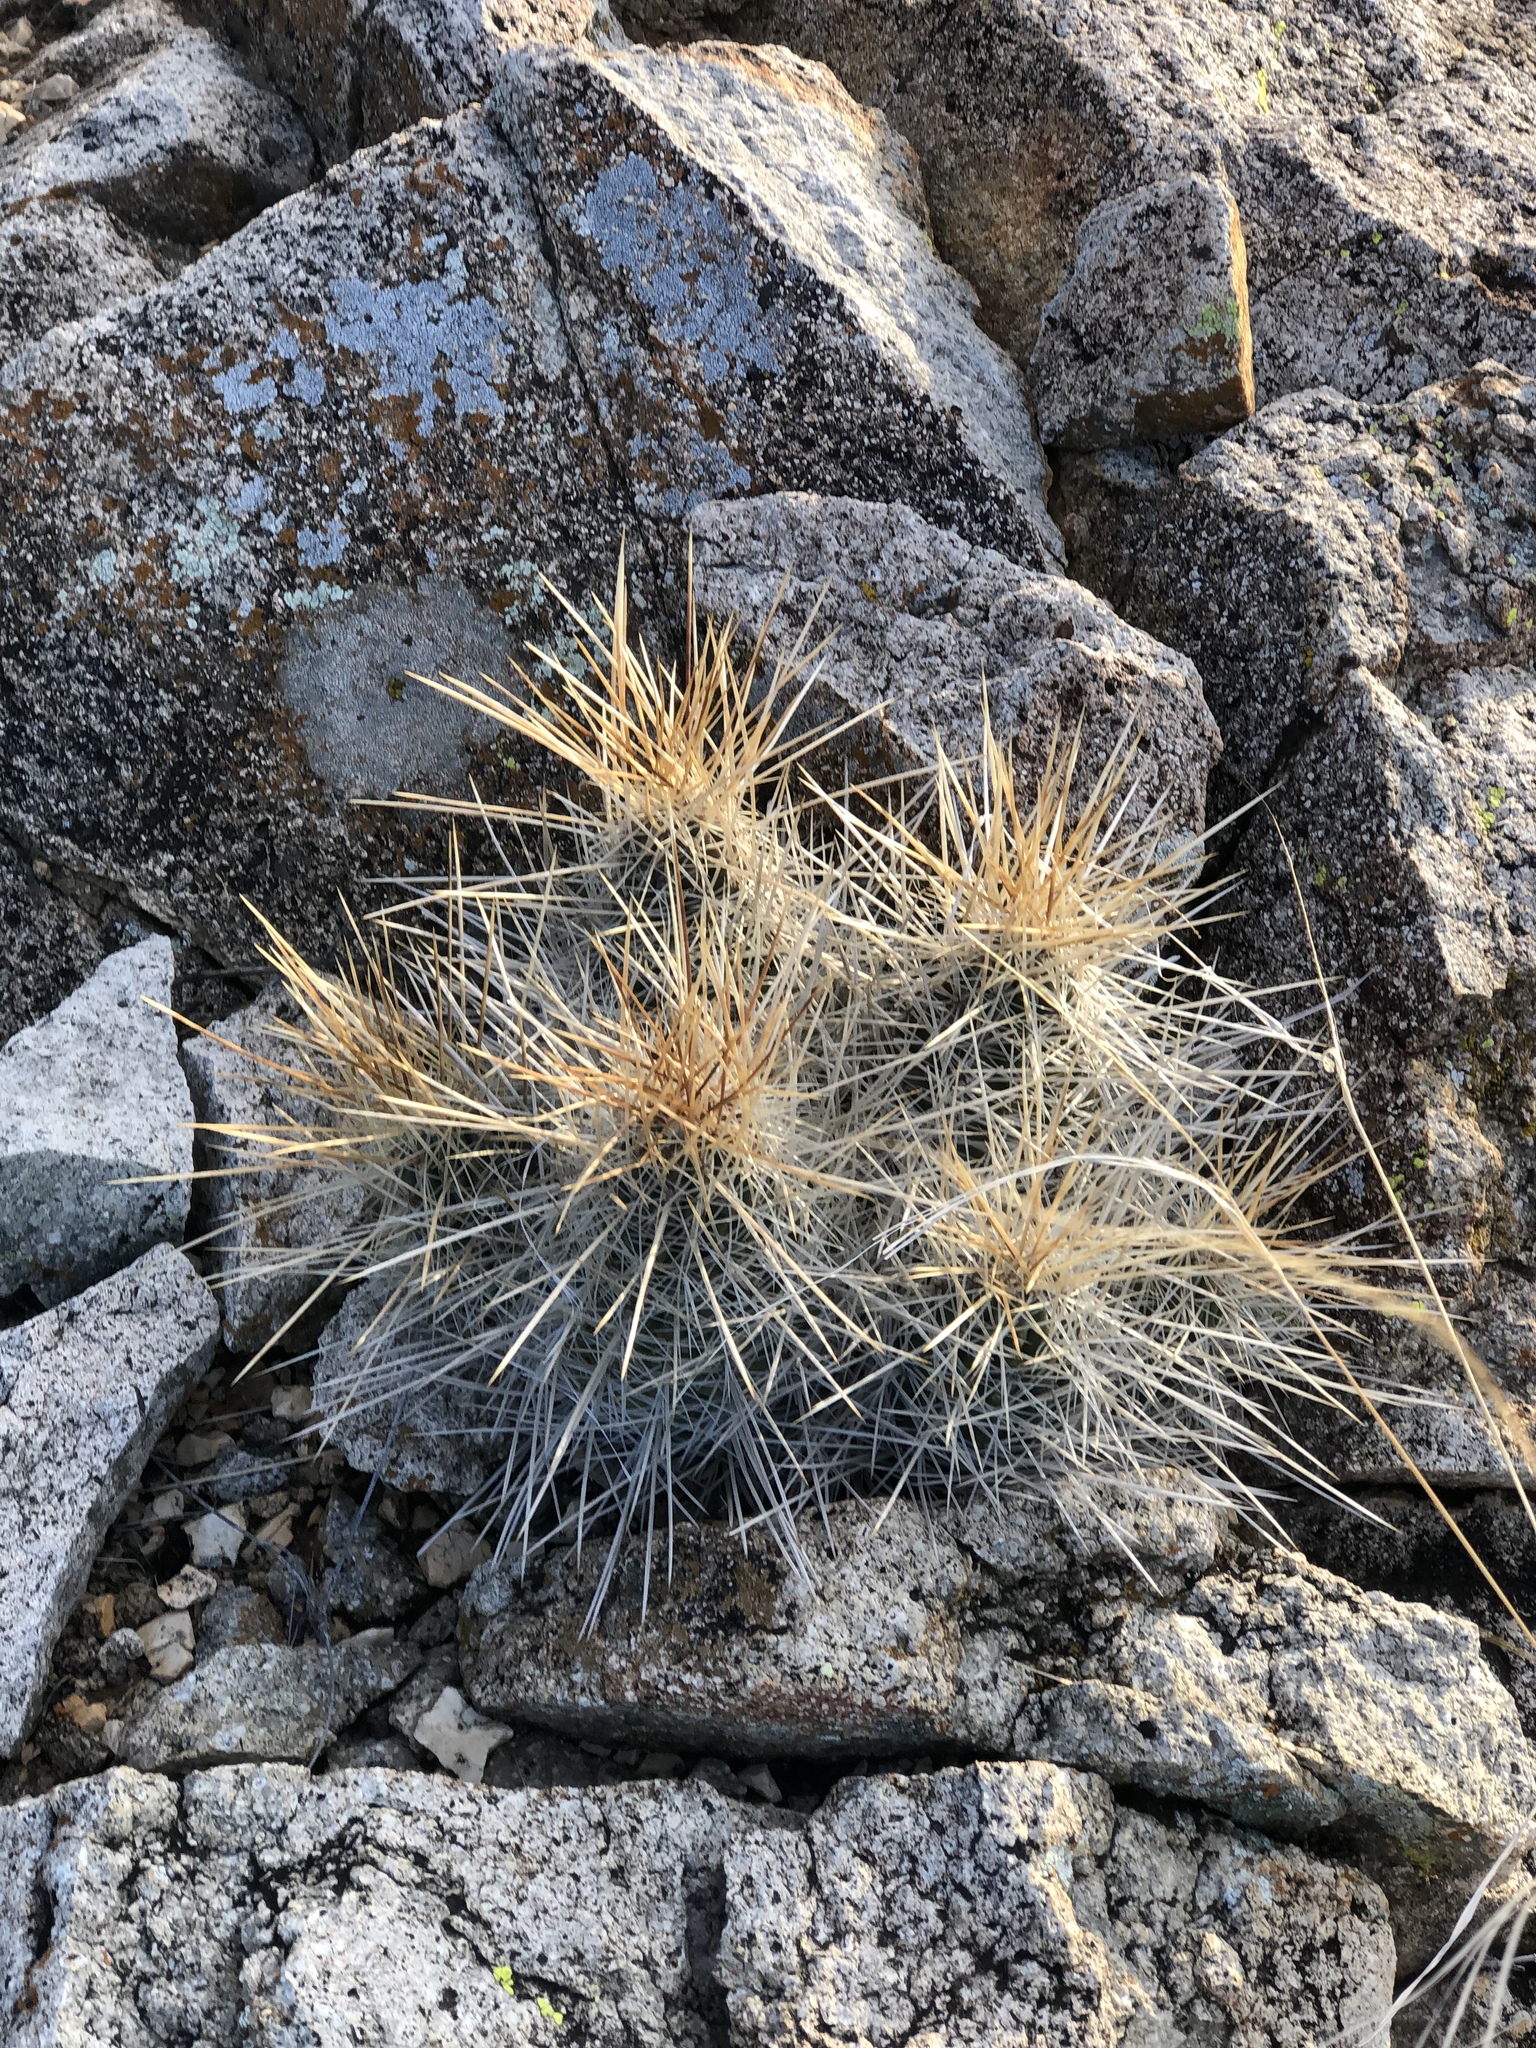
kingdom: Plantae
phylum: Tracheophyta
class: Magnoliopsida
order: Caryophyllales
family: Cactaceae
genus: Echinocereus
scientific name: Echinocereus stramineus
